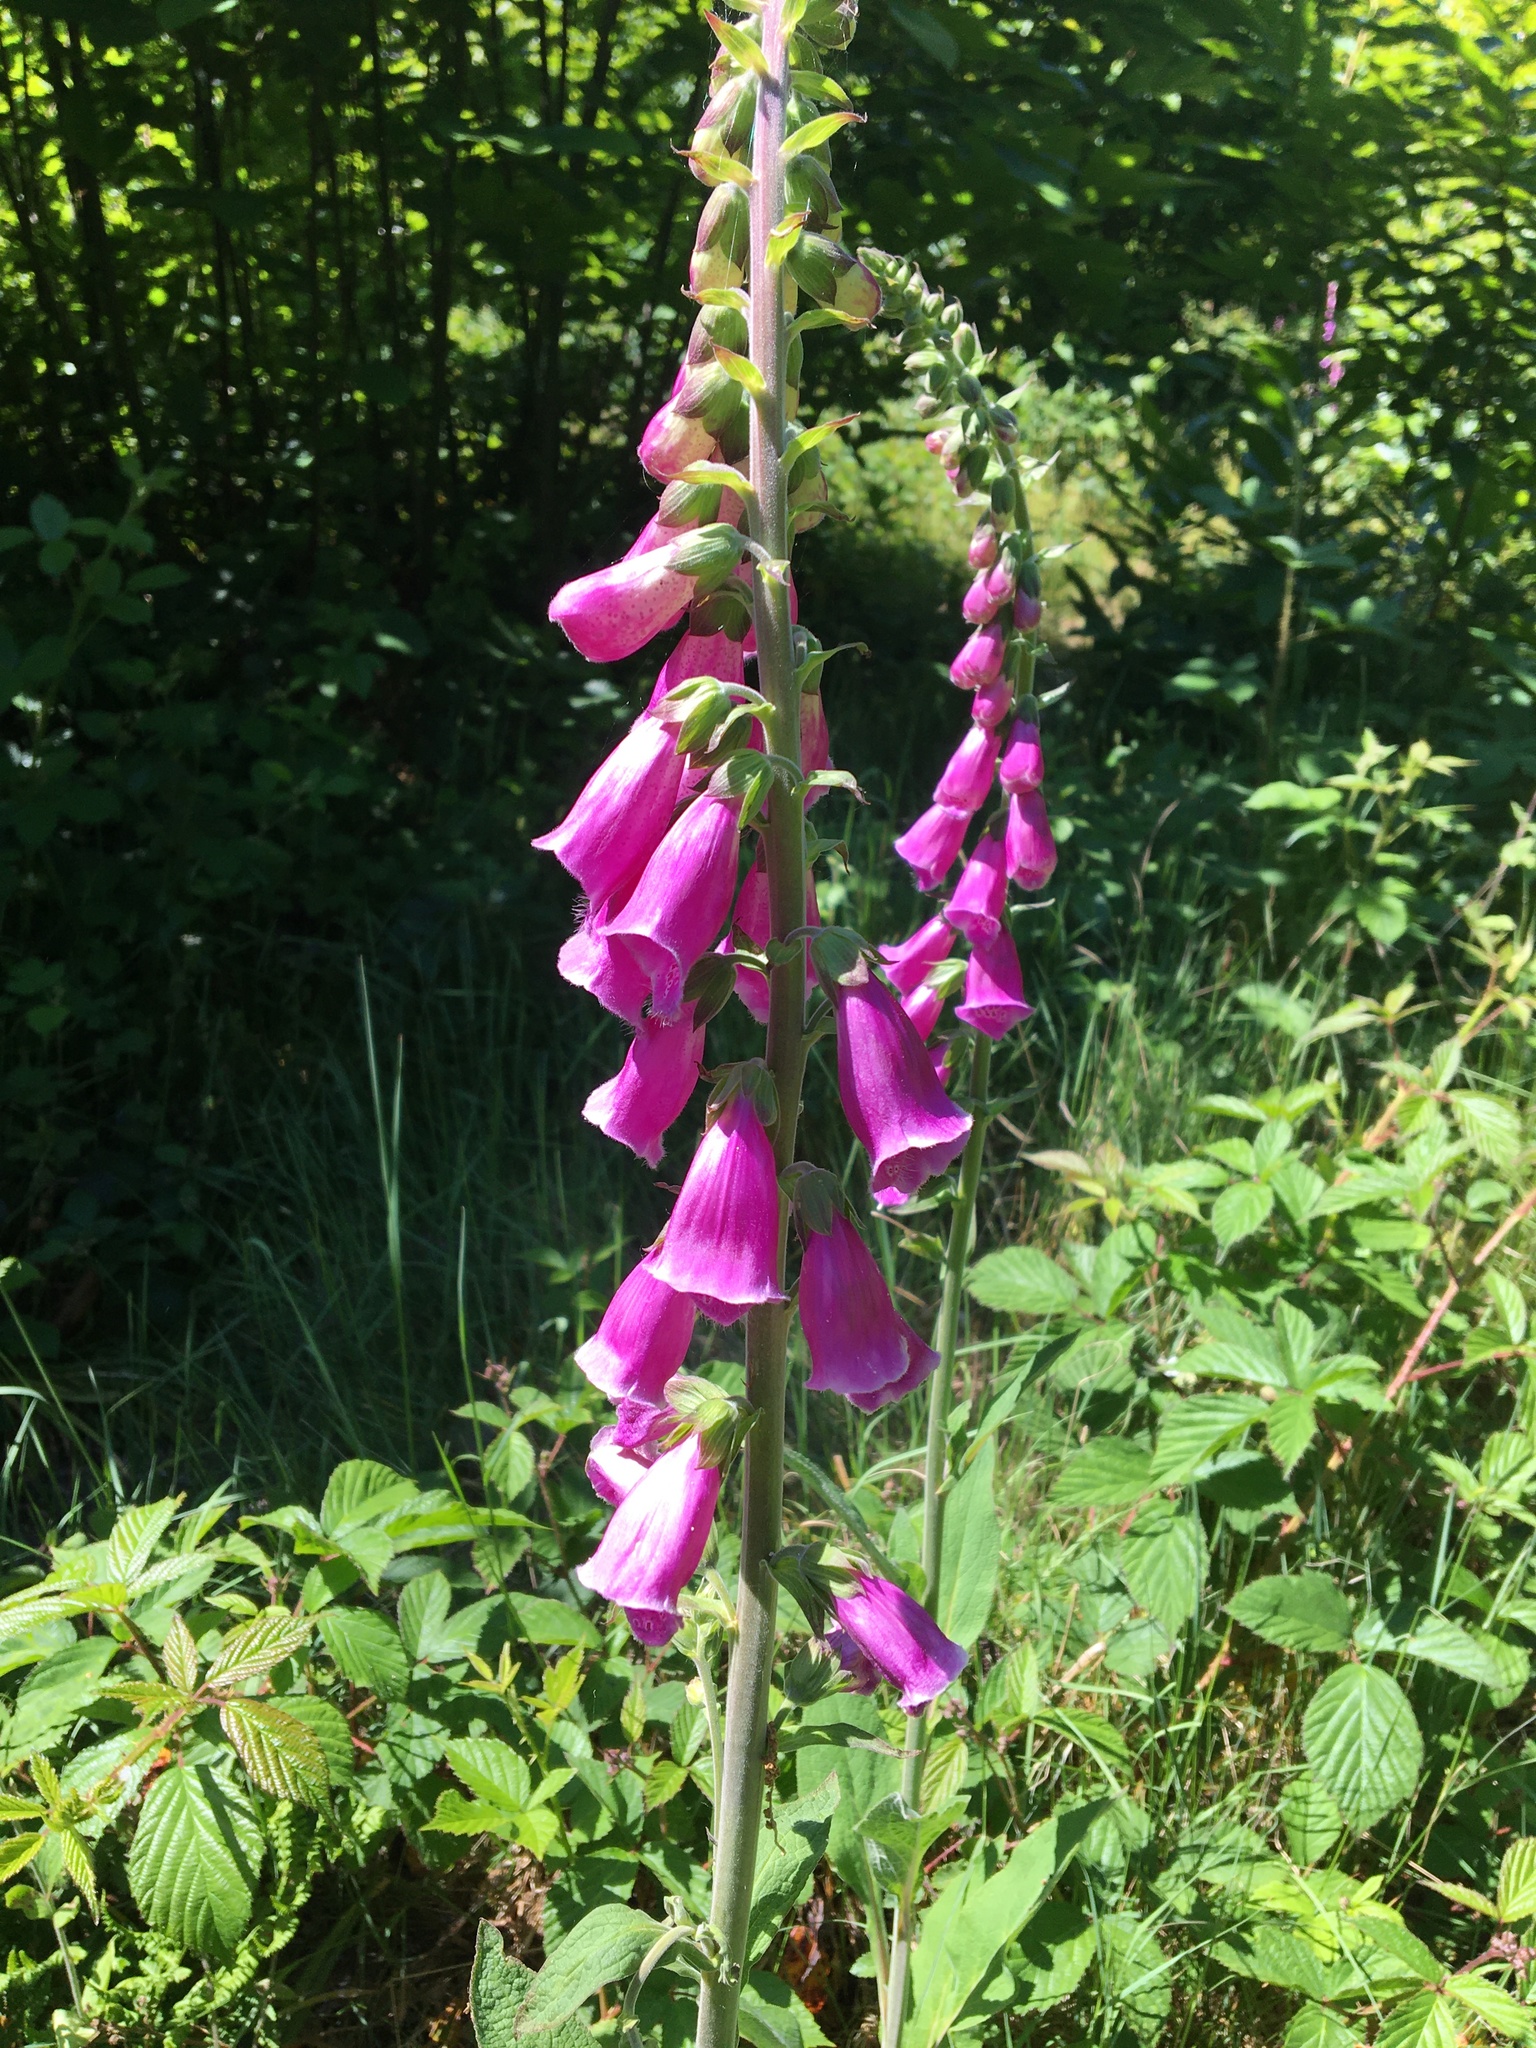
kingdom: Plantae
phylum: Tracheophyta
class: Magnoliopsida
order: Lamiales
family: Plantaginaceae
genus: Digitalis
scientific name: Digitalis purpurea
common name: Foxglove
